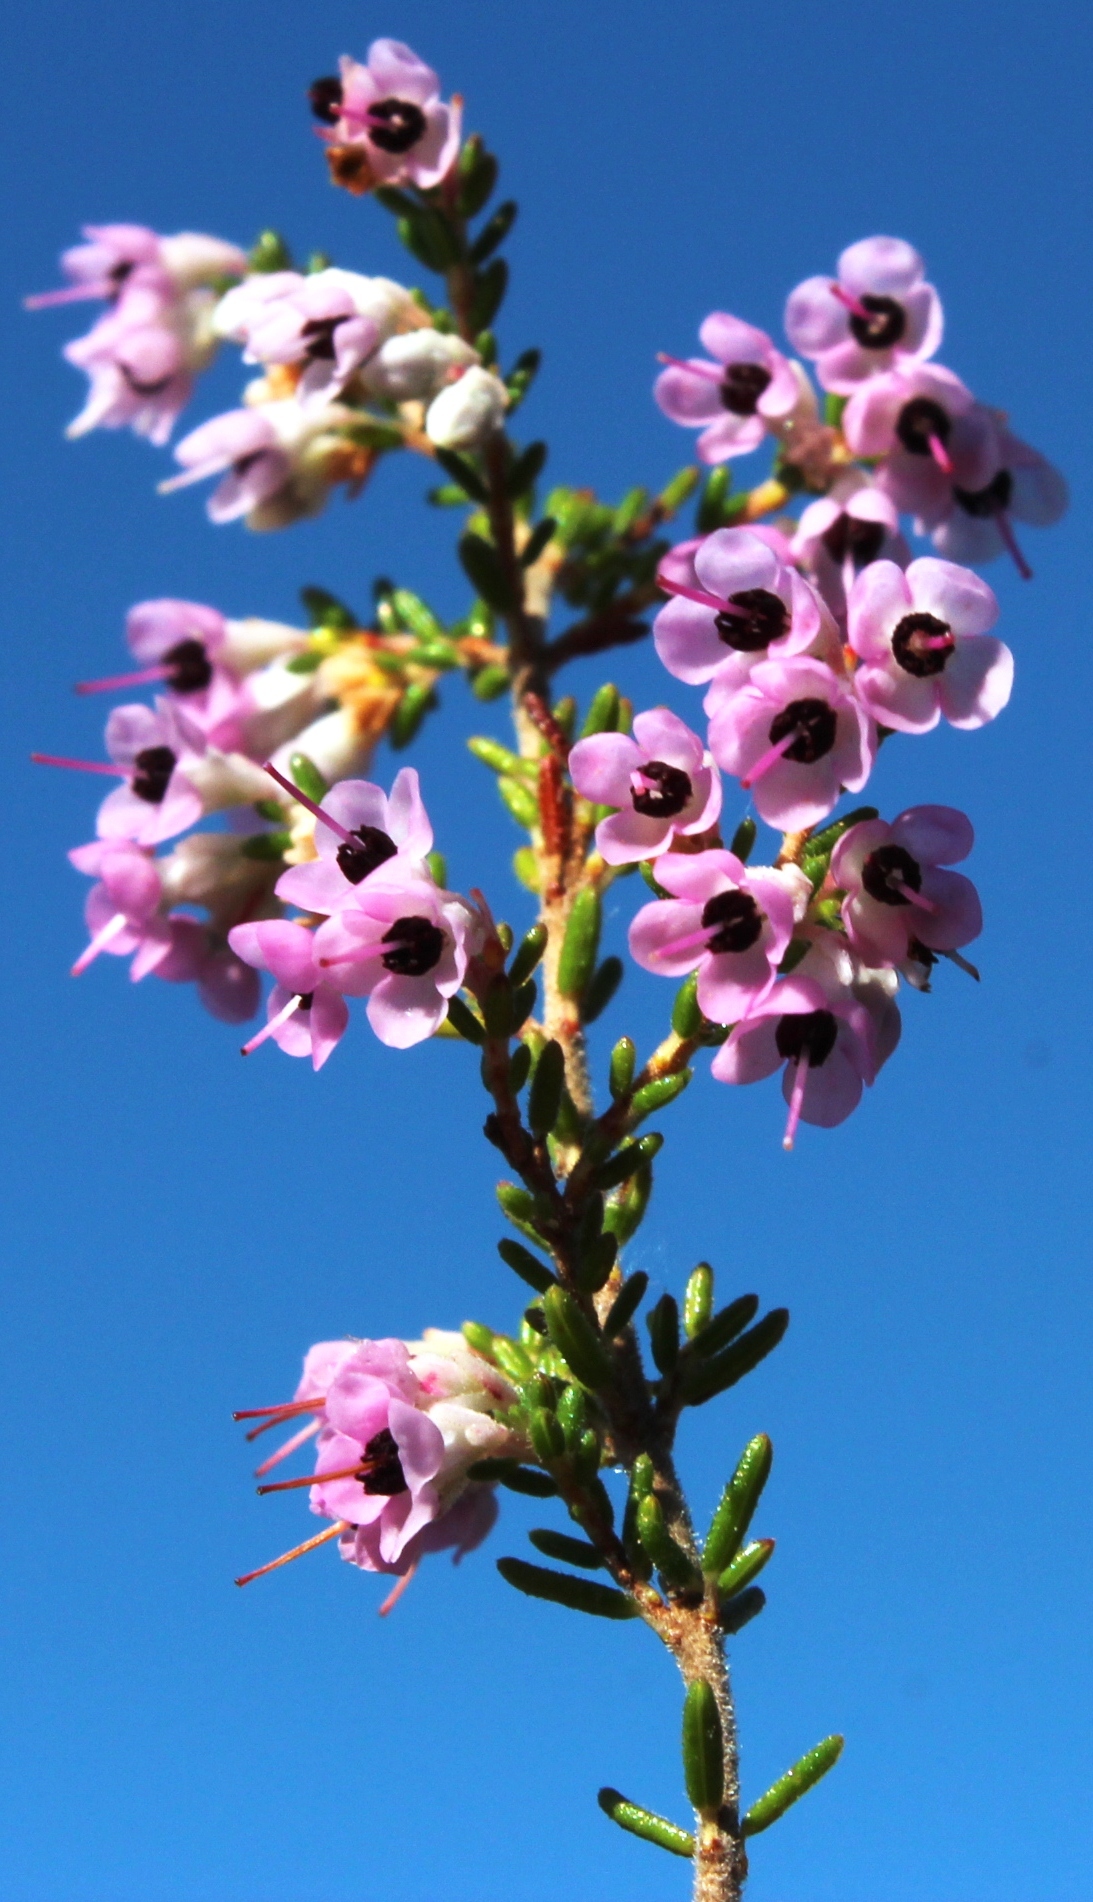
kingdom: Plantae
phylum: Tracheophyta
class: Magnoliopsida
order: Ericales
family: Ericaceae
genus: Erica
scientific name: Erica melanthera
